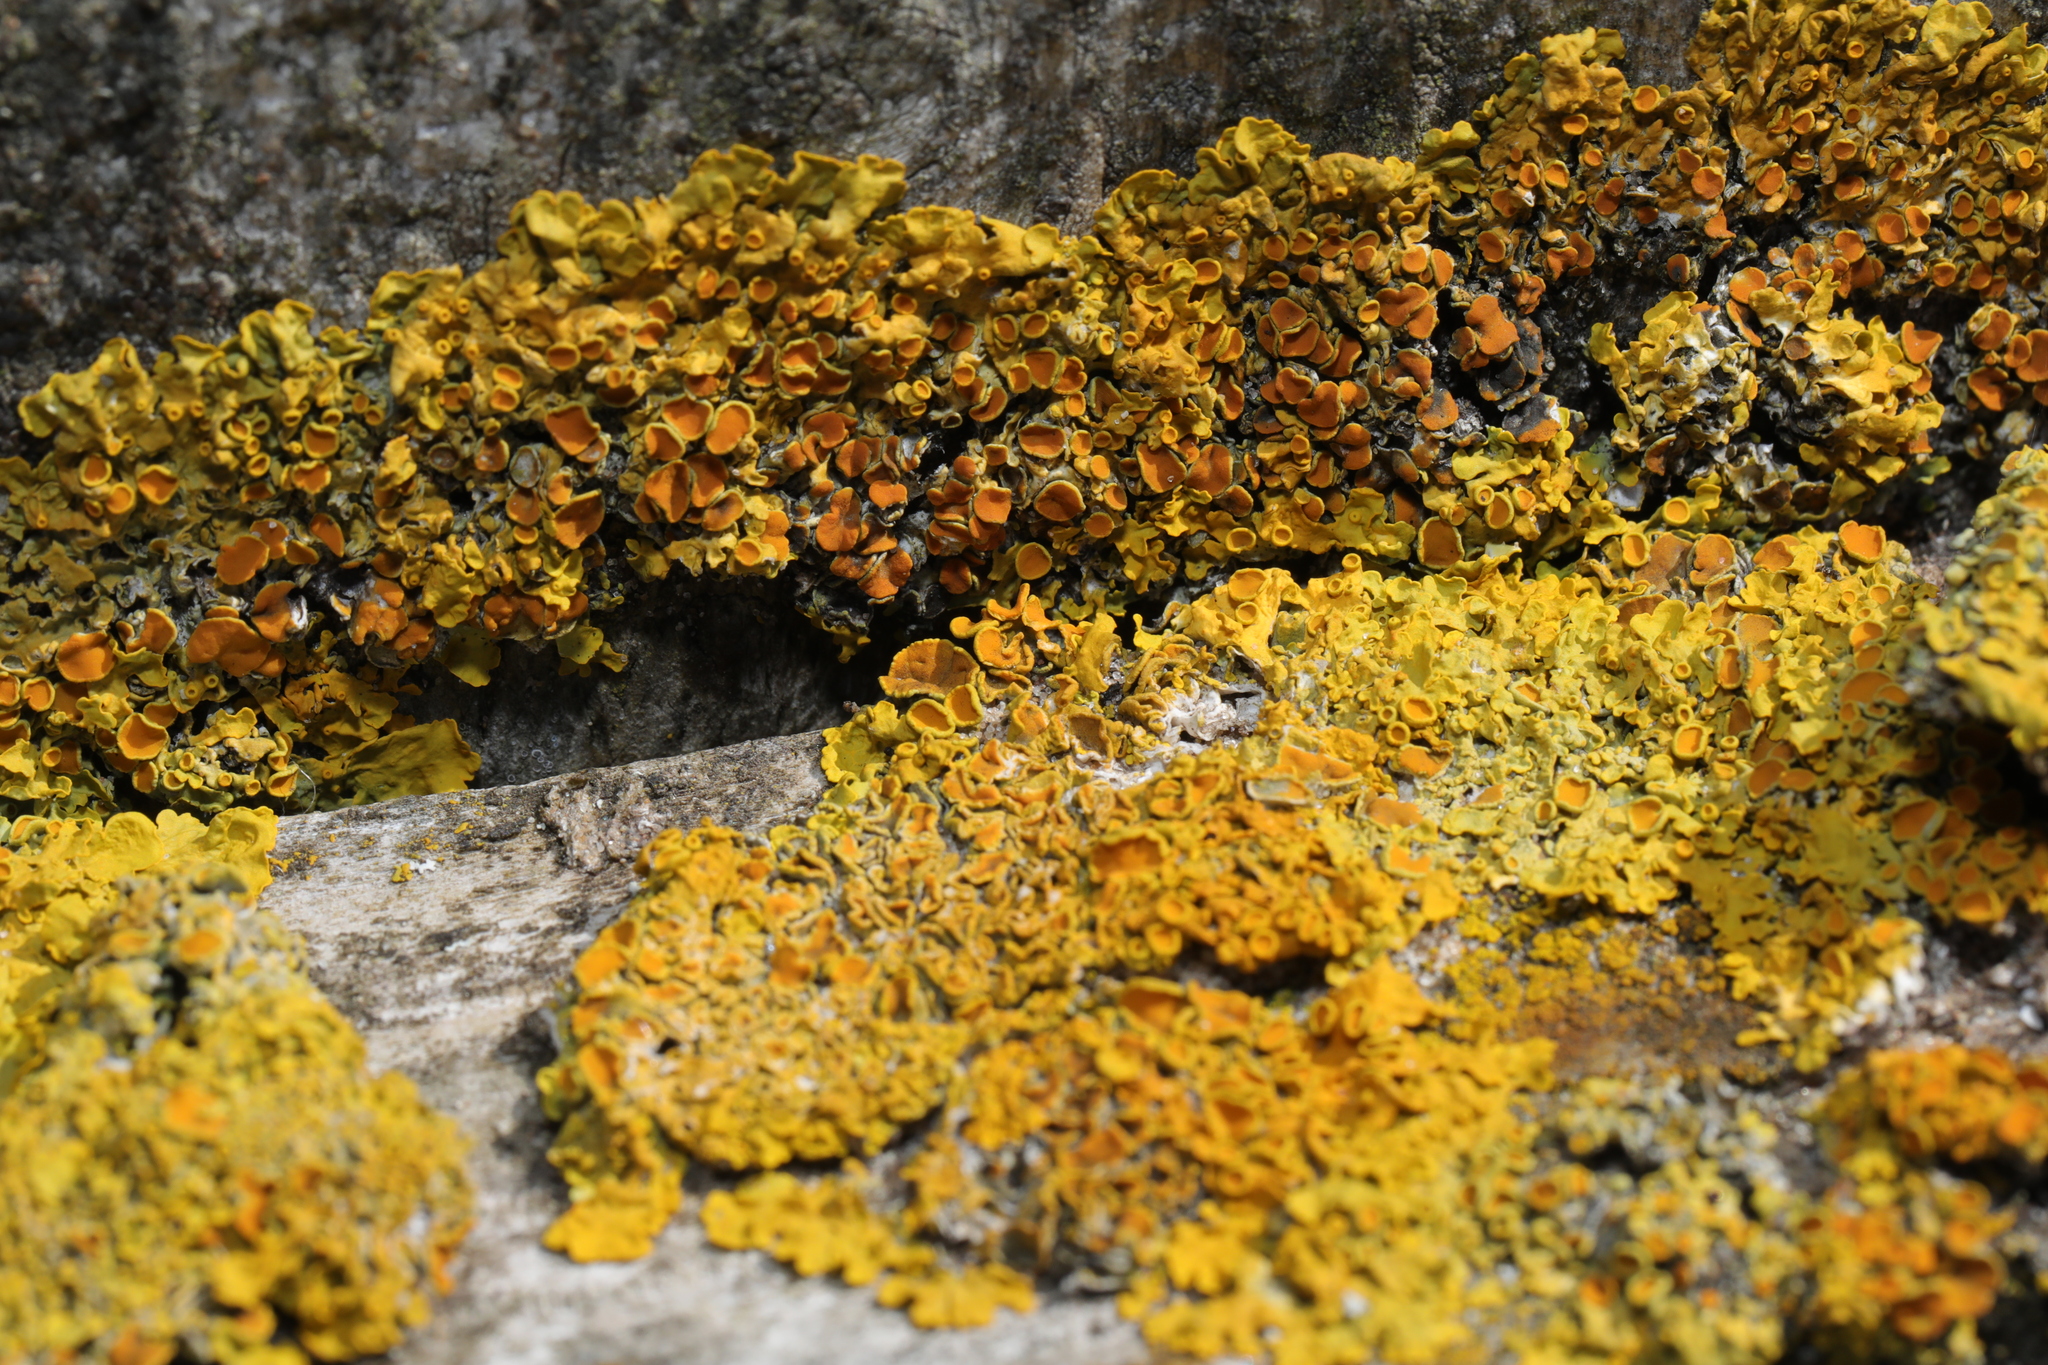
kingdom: Fungi
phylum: Ascomycota
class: Lecanoromycetes
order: Teloschistales
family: Teloschistaceae
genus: Xanthoria
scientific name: Xanthoria parietina
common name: Common orange lichen
